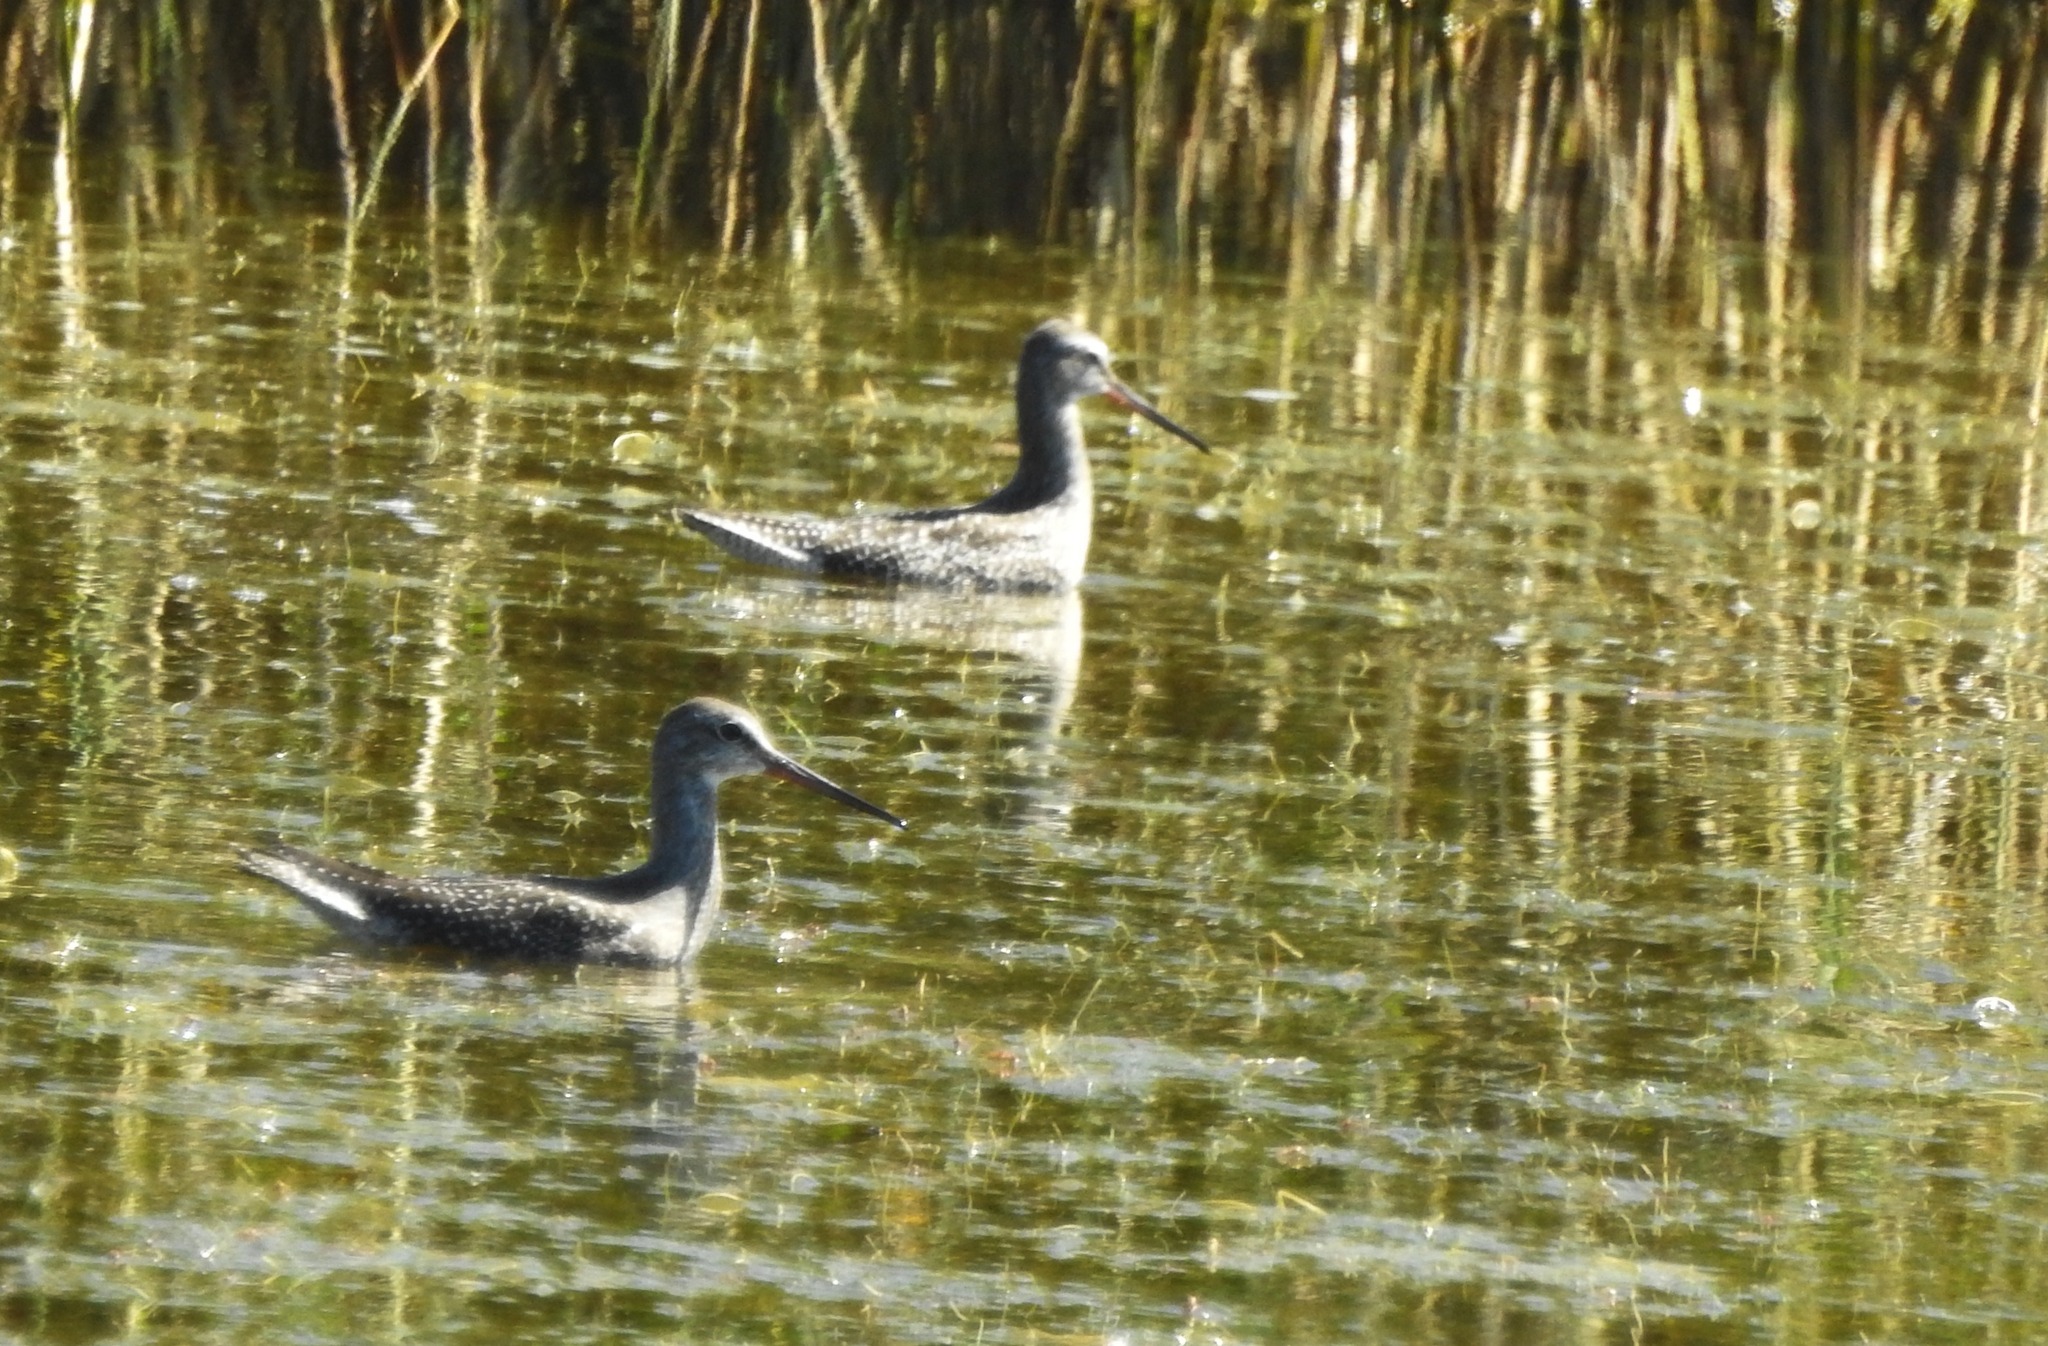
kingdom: Animalia
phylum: Chordata
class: Aves
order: Charadriiformes
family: Scolopacidae
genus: Tringa
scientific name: Tringa erythropus
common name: Spotted redshank
